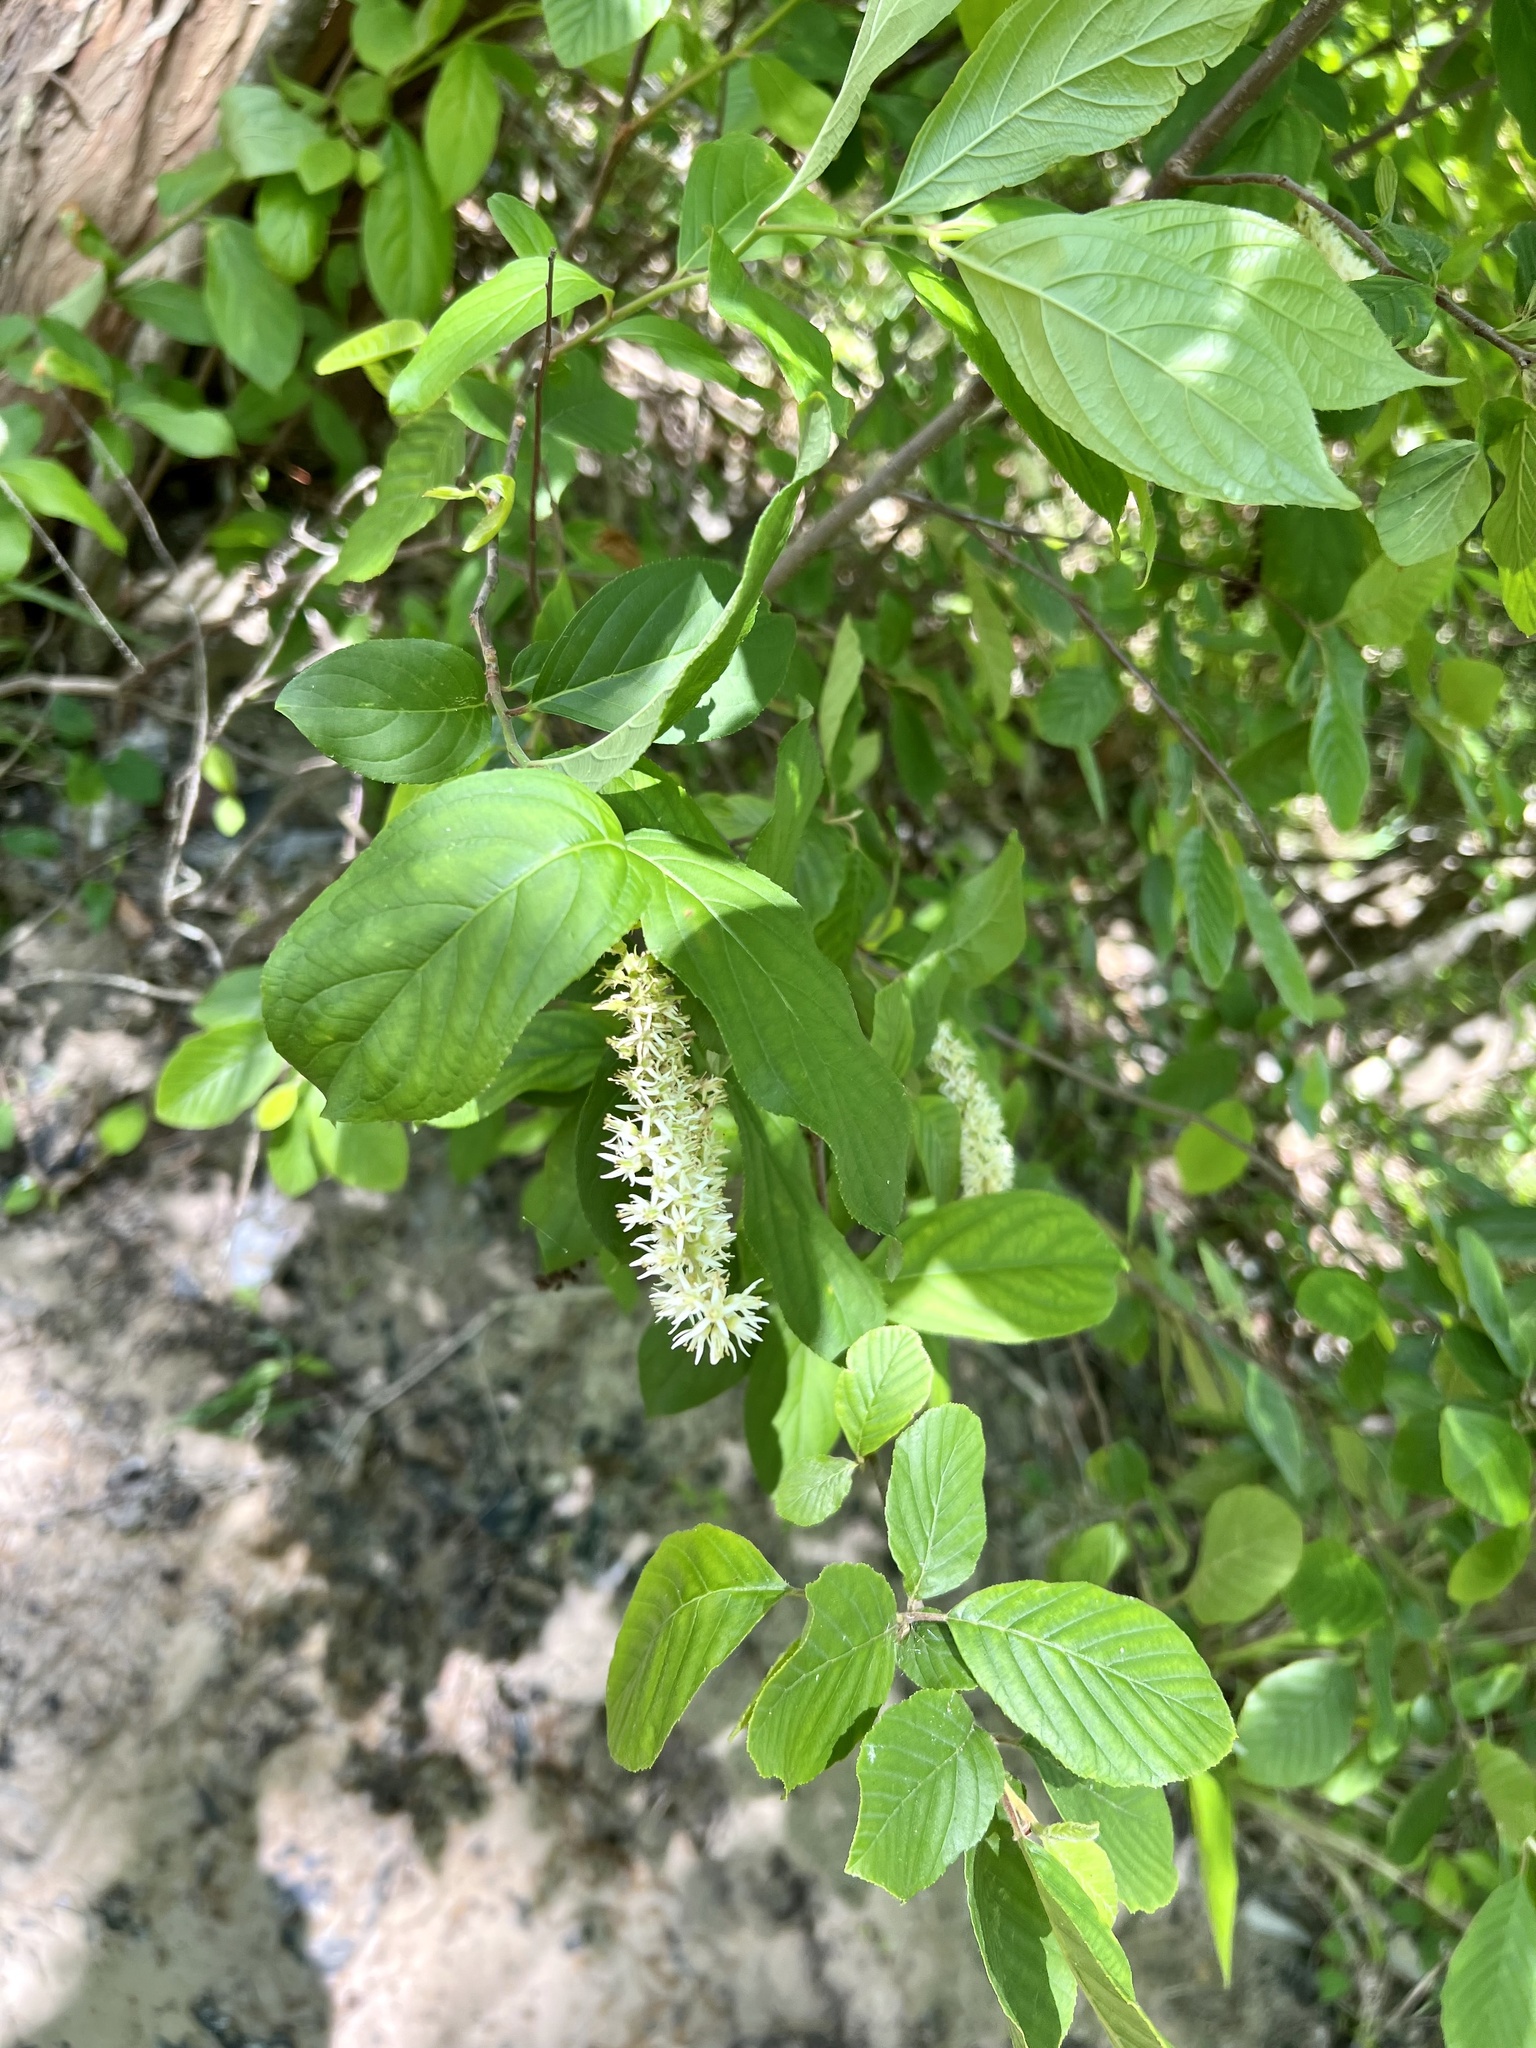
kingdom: Plantae
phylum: Tracheophyta
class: Magnoliopsida
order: Saxifragales
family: Iteaceae
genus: Itea
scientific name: Itea virginica
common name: Sweetspire
